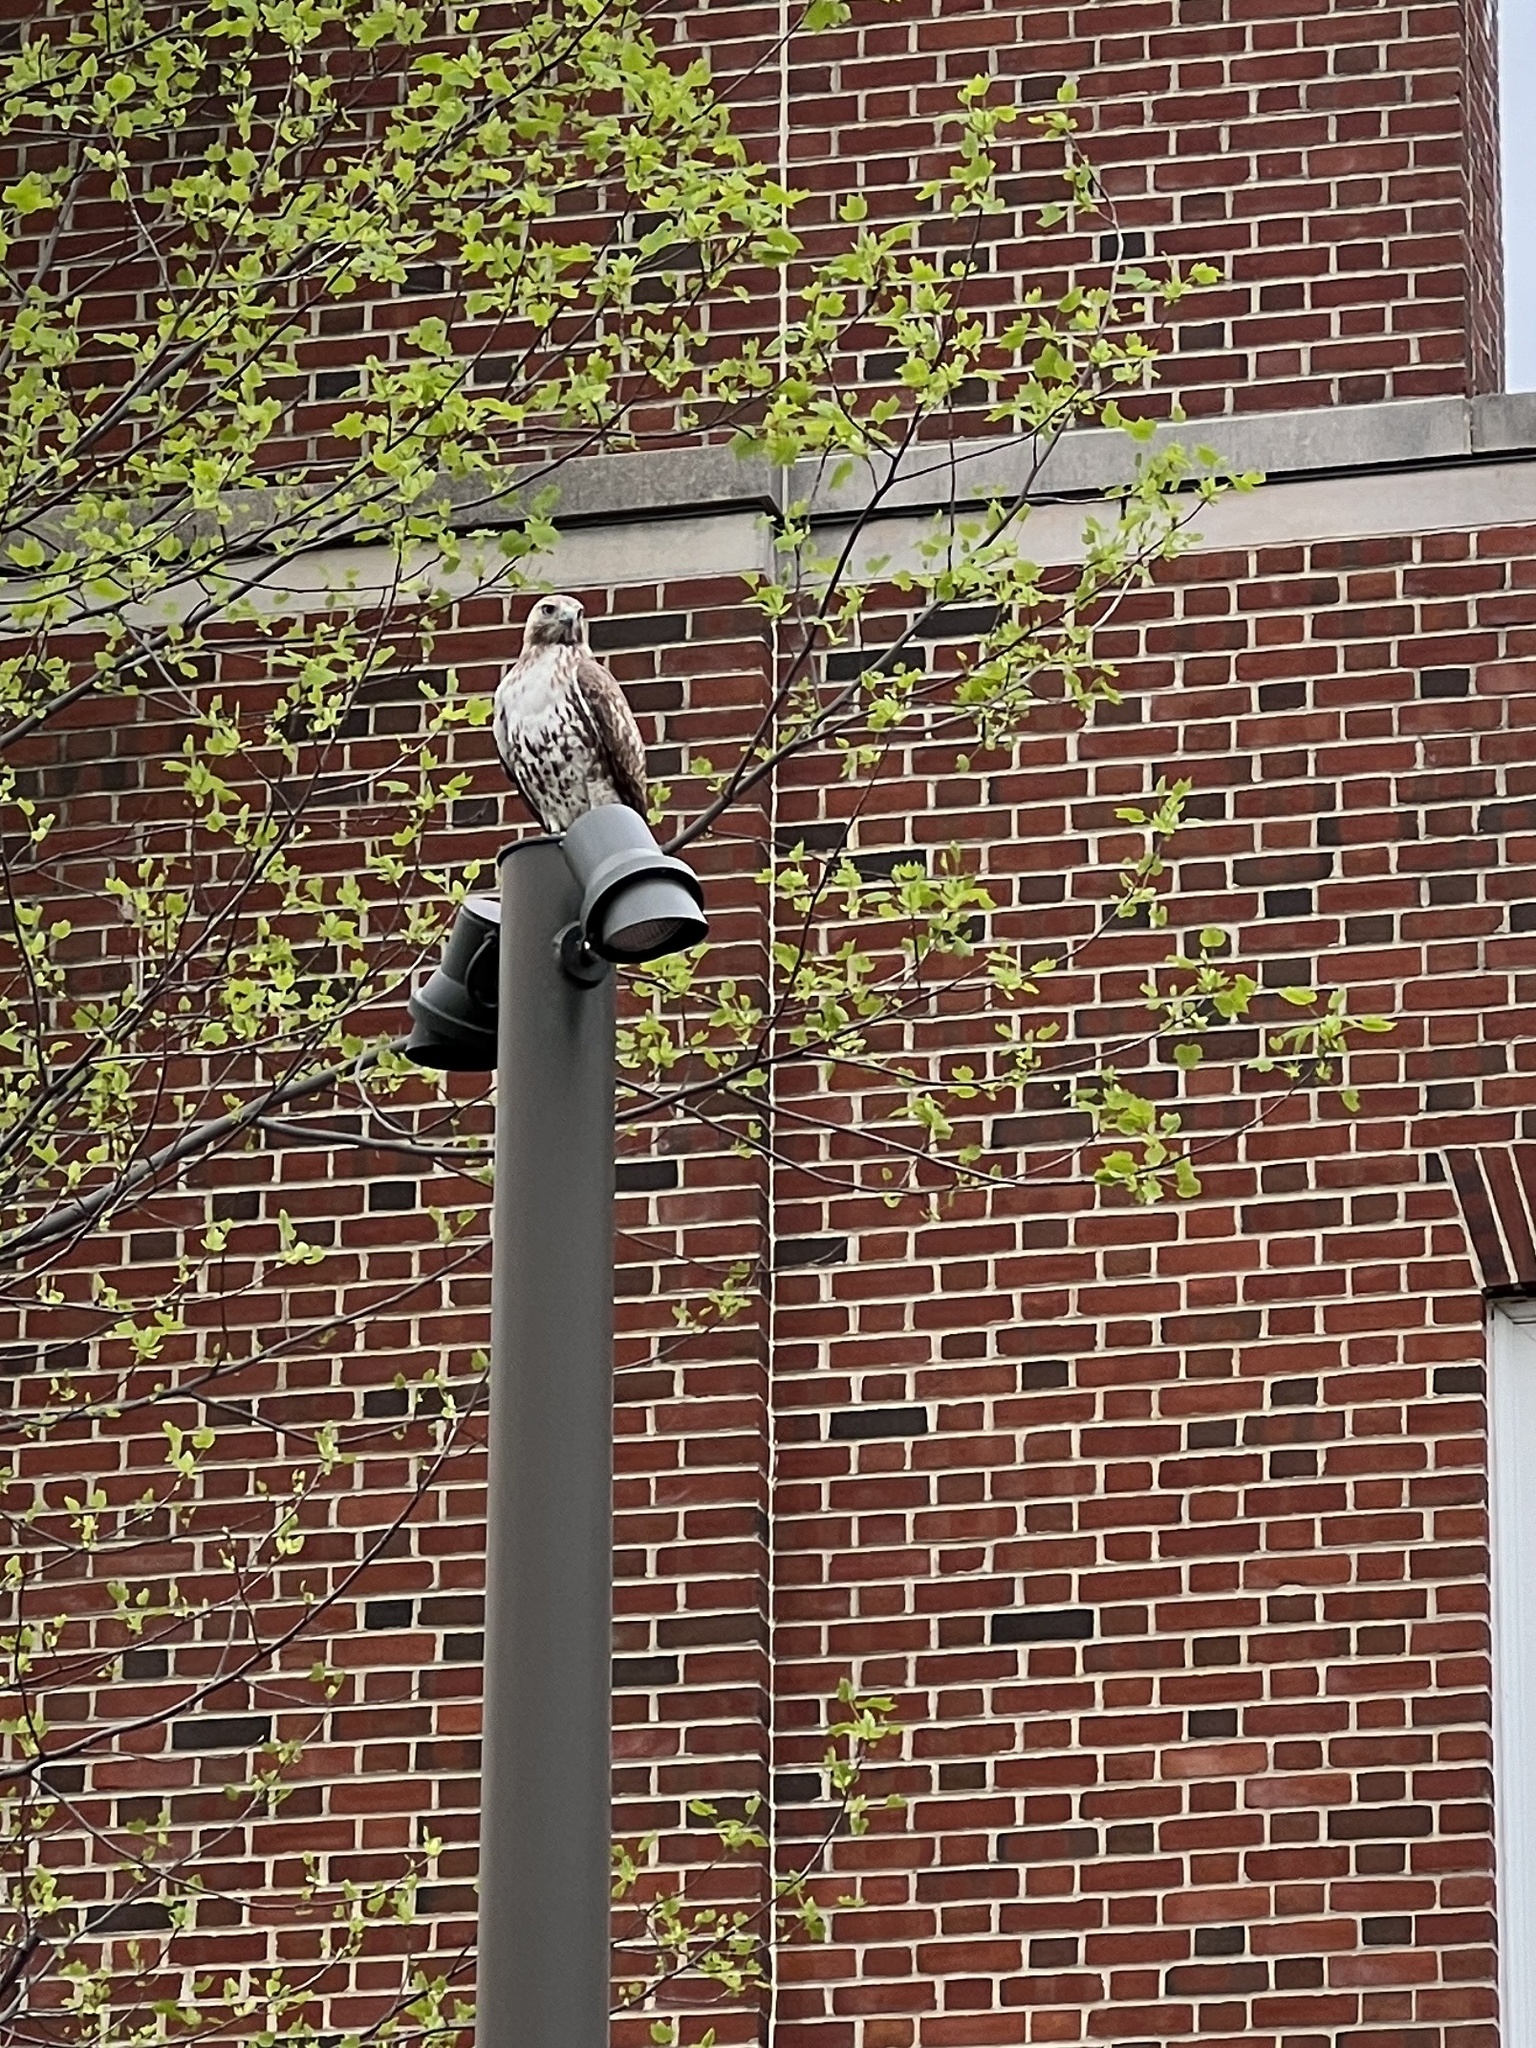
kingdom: Animalia
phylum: Chordata
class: Aves
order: Accipitriformes
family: Accipitridae
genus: Buteo
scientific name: Buteo jamaicensis
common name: Red-tailed hawk
